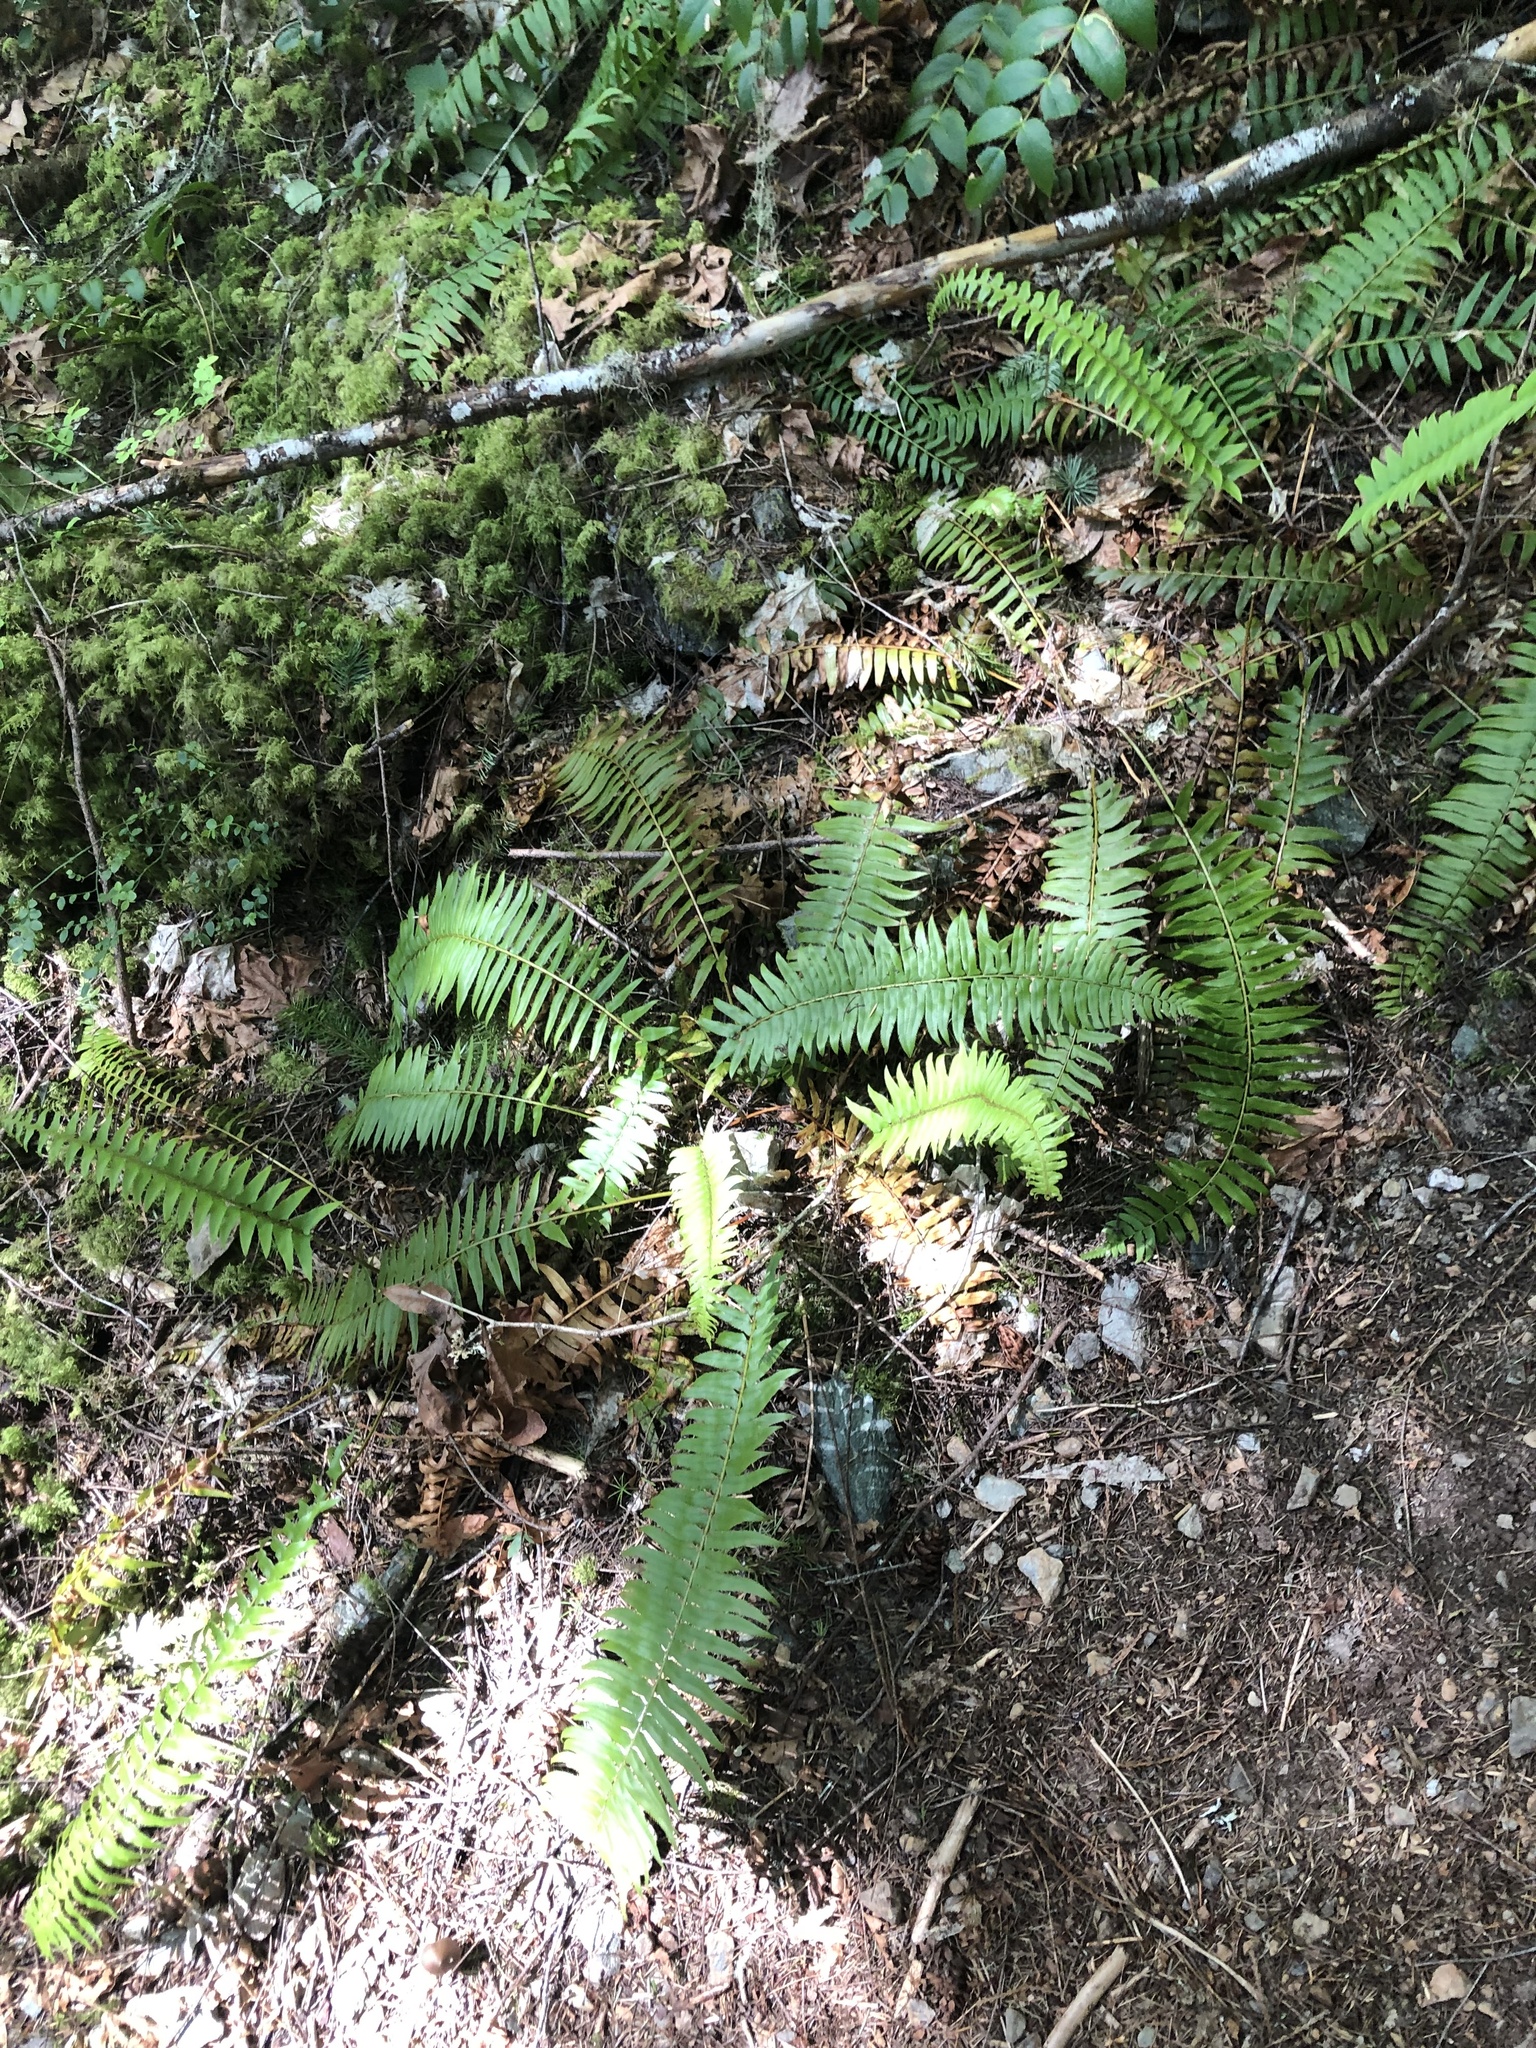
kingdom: Plantae
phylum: Tracheophyta
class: Polypodiopsida
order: Polypodiales
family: Dryopteridaceae
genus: Polystichum
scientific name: Polystichum munitum
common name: Western sword-fern
